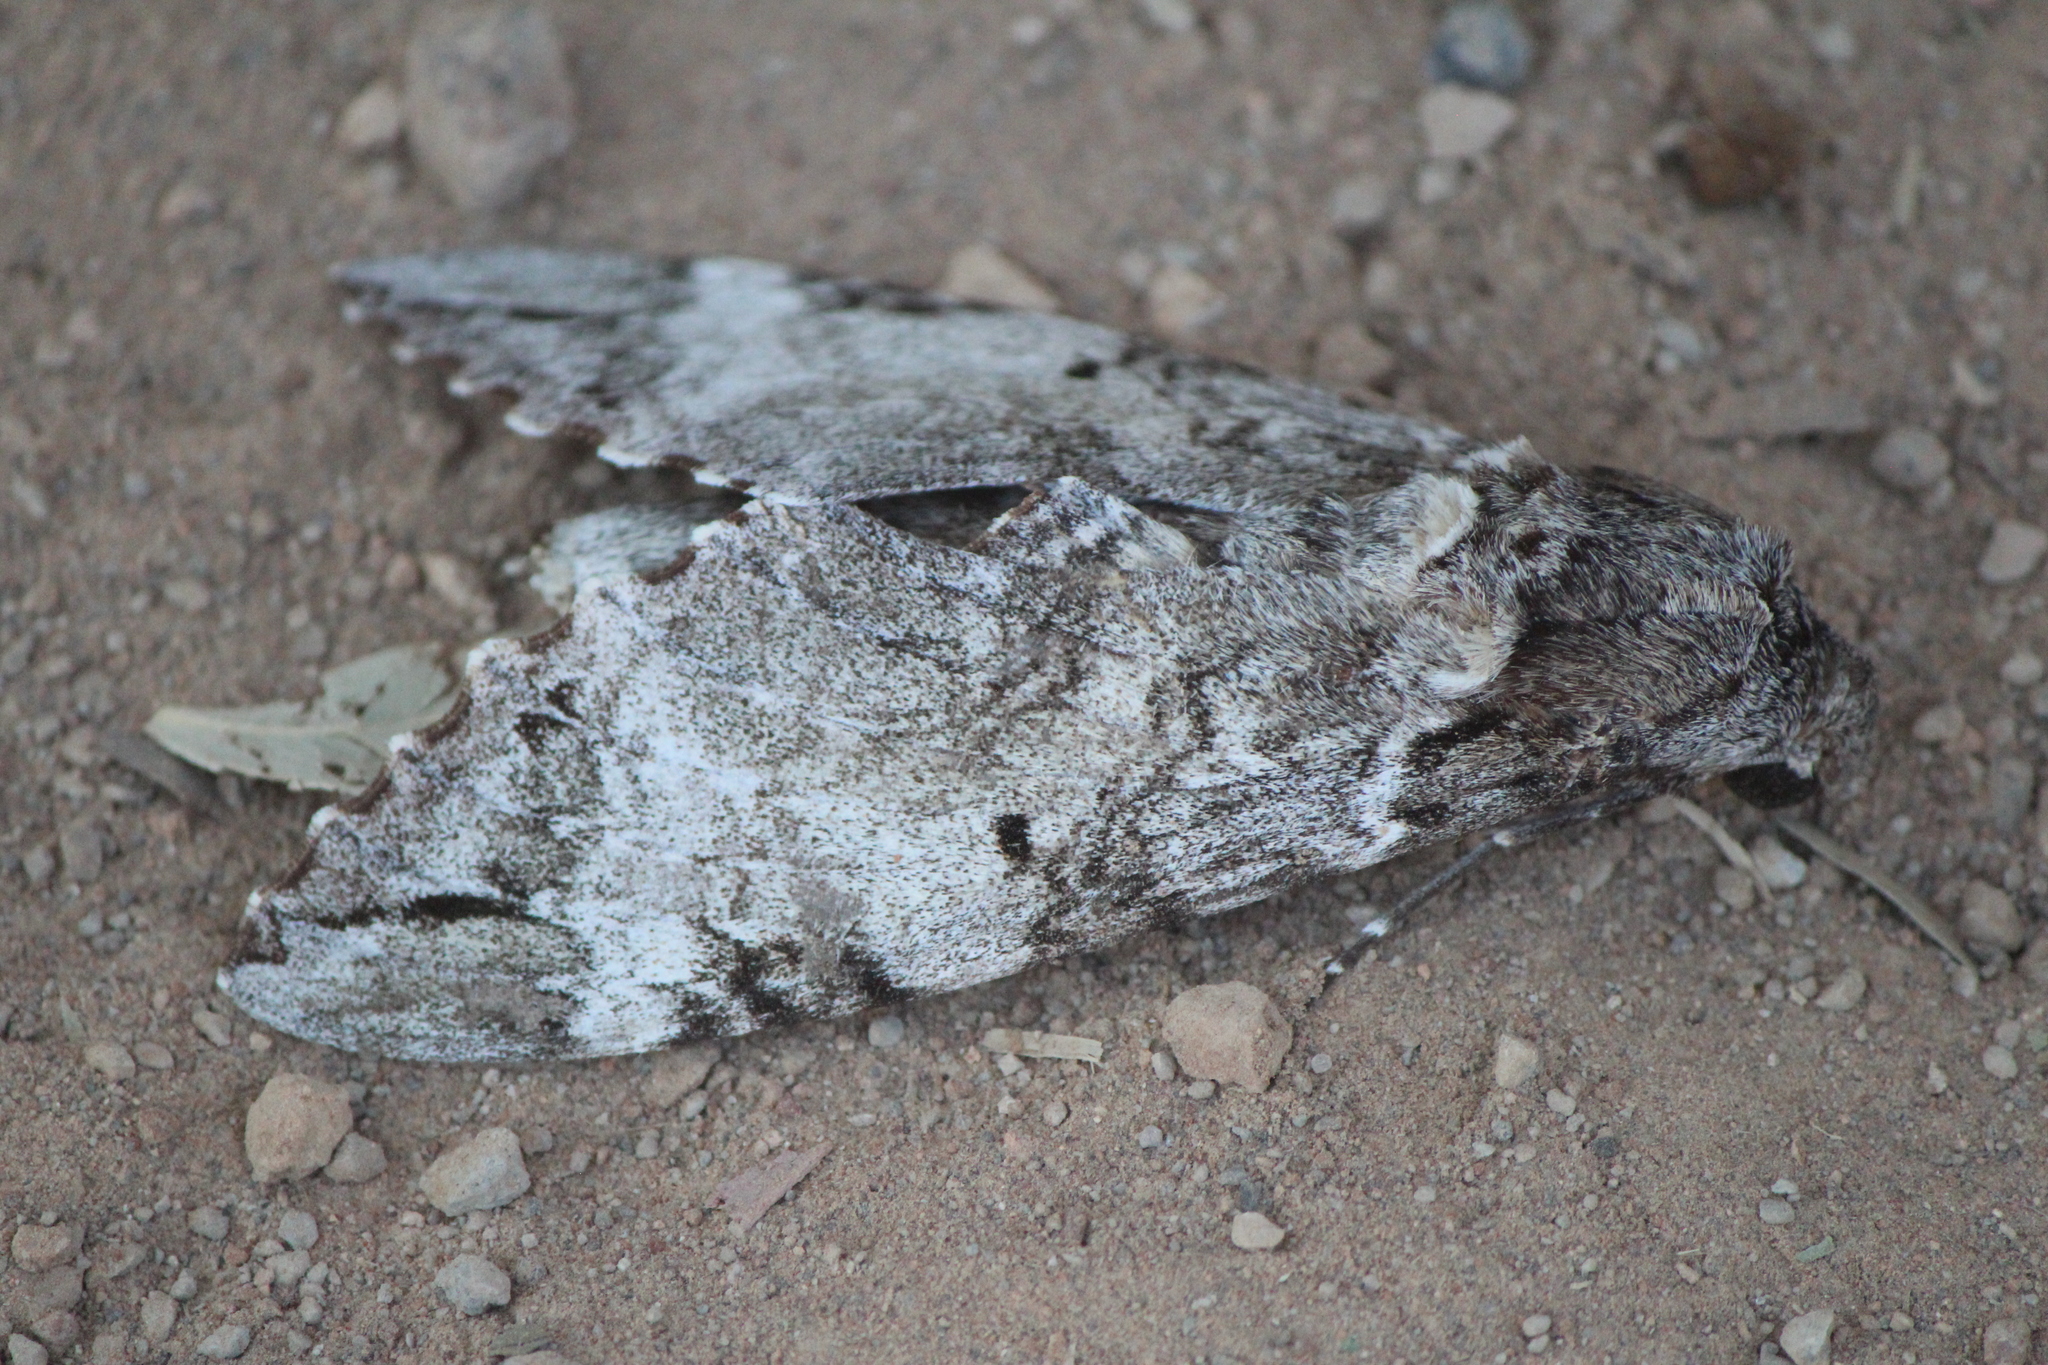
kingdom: Animalia
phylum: Arthropoda
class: Insecta
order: Lepidoptera
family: Sphingidae
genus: Pseudosphinx
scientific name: Pseudosphinx tetrio
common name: Tetrio sphinx
